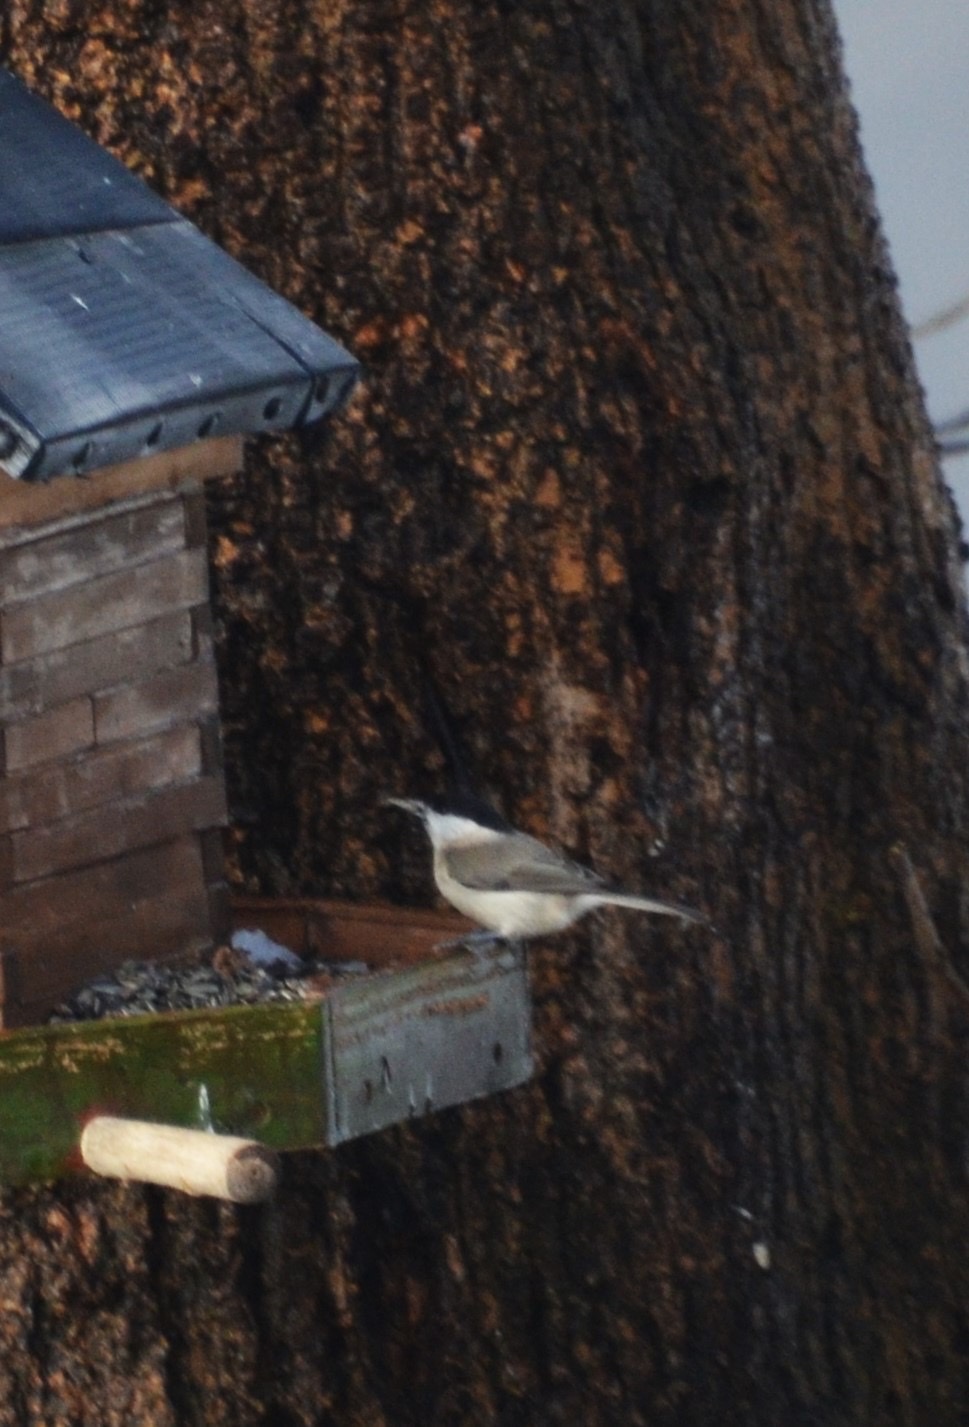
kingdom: Animalia
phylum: Chordata
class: Aves
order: Passeriformes
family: Paridae
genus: Poecile
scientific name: Poecile palustris
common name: Marsh tit
